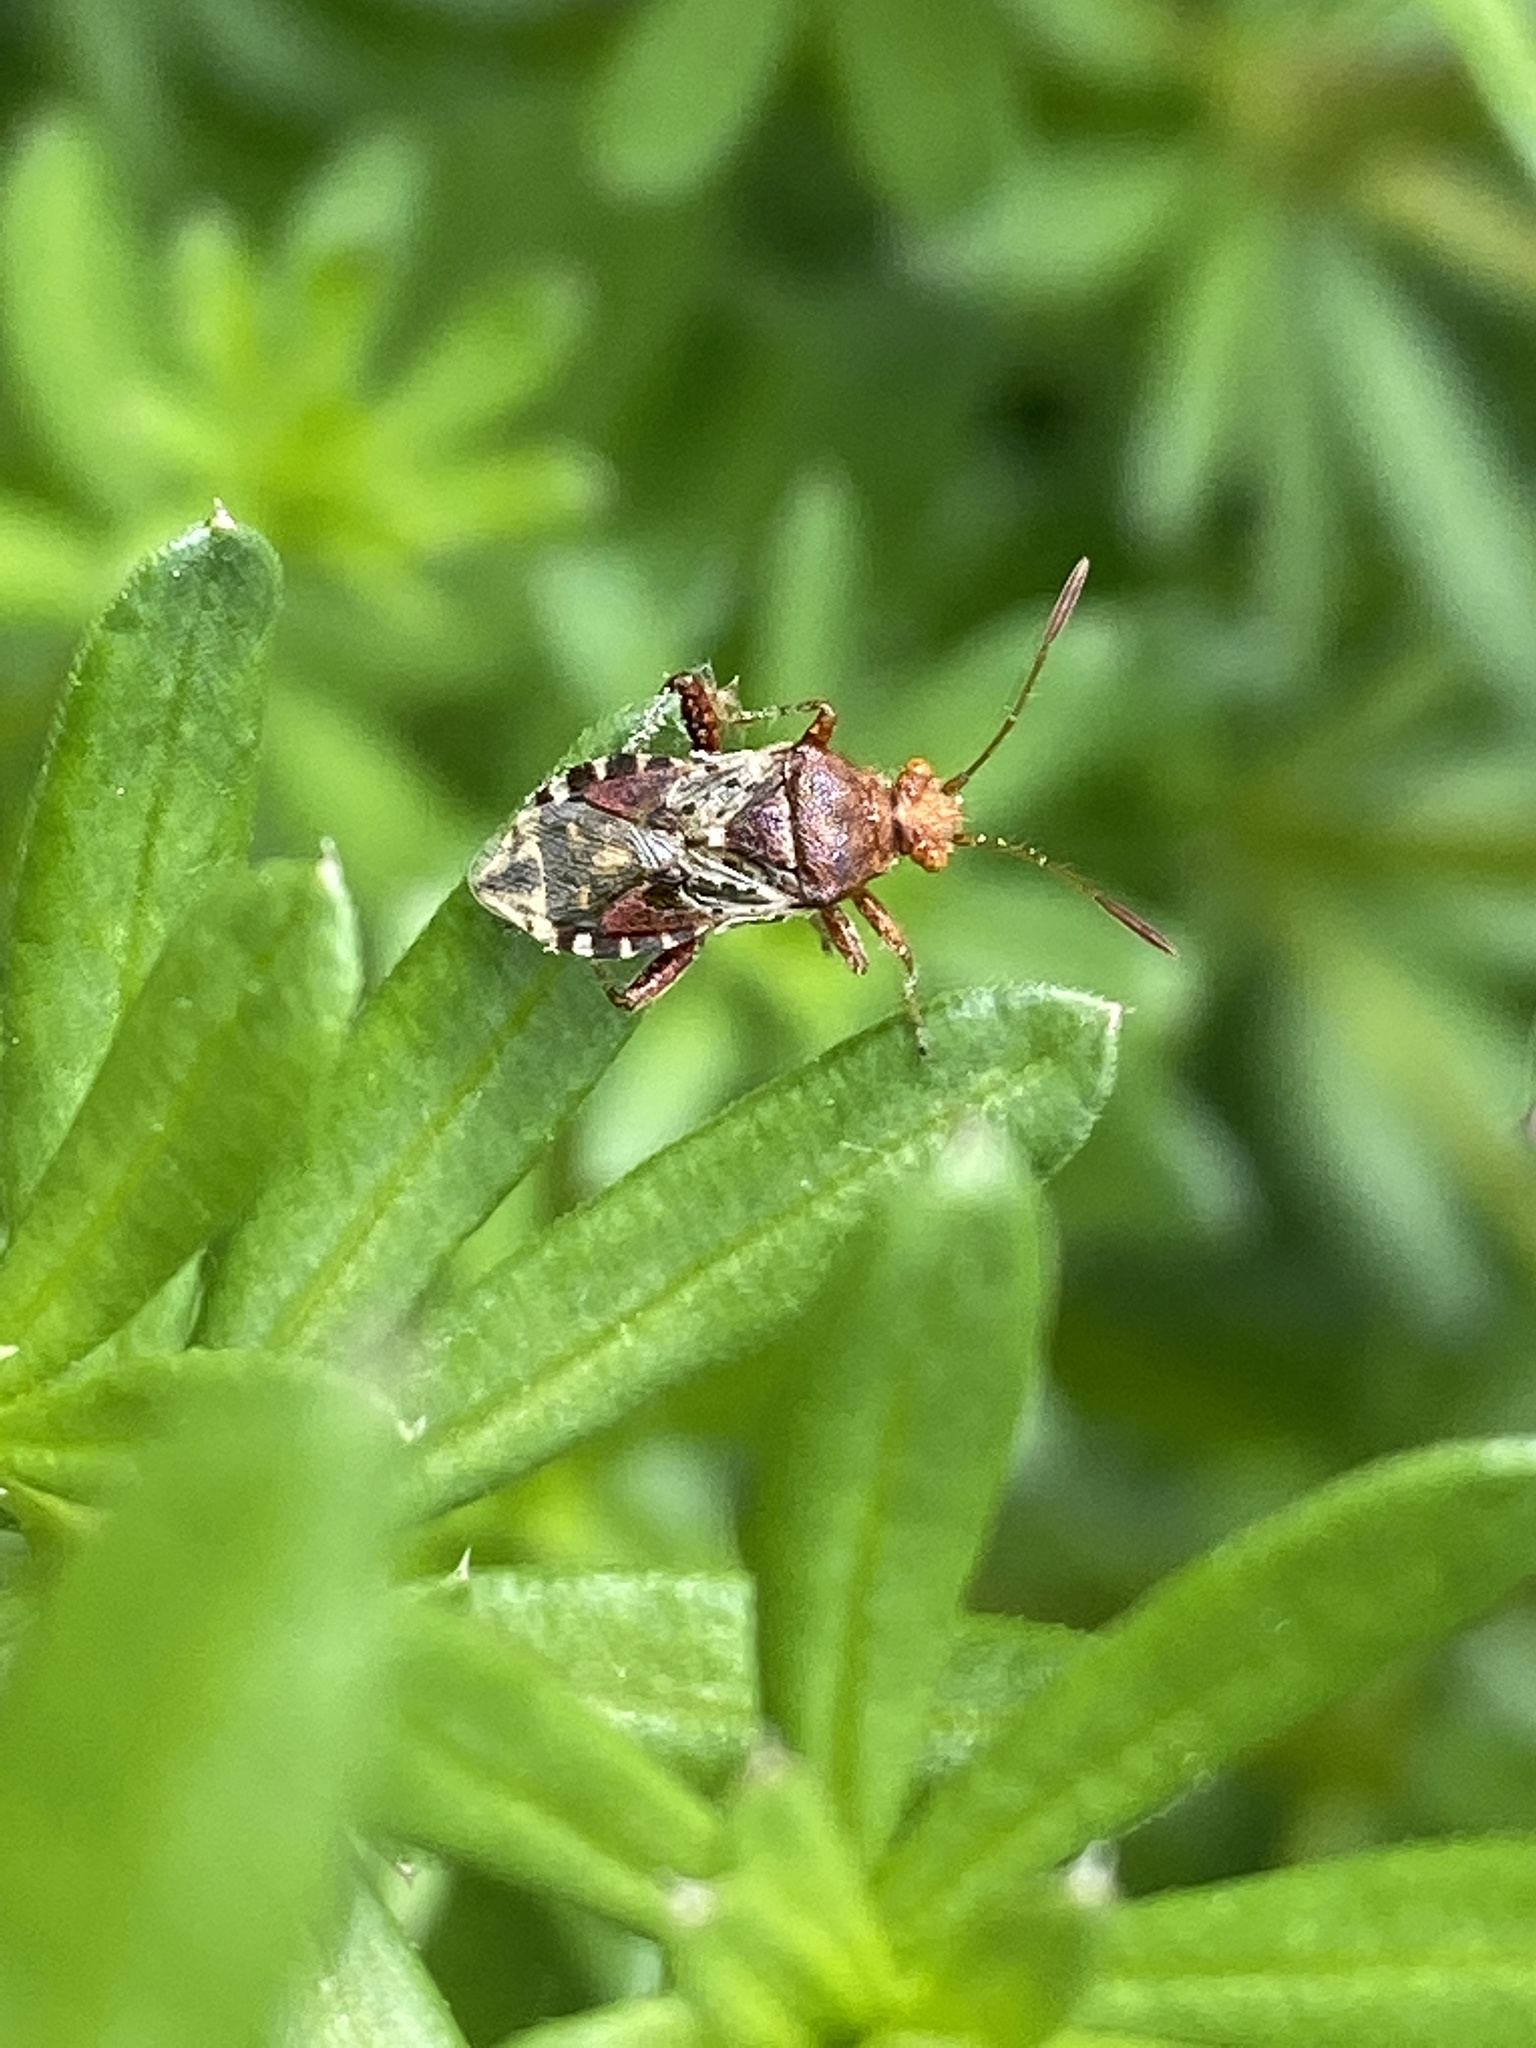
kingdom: Animalia
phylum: Arthropoda
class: Insecta
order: Hemiptera
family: Rhopalidae
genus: Rhopalus
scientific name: Rhopalus subrufus
